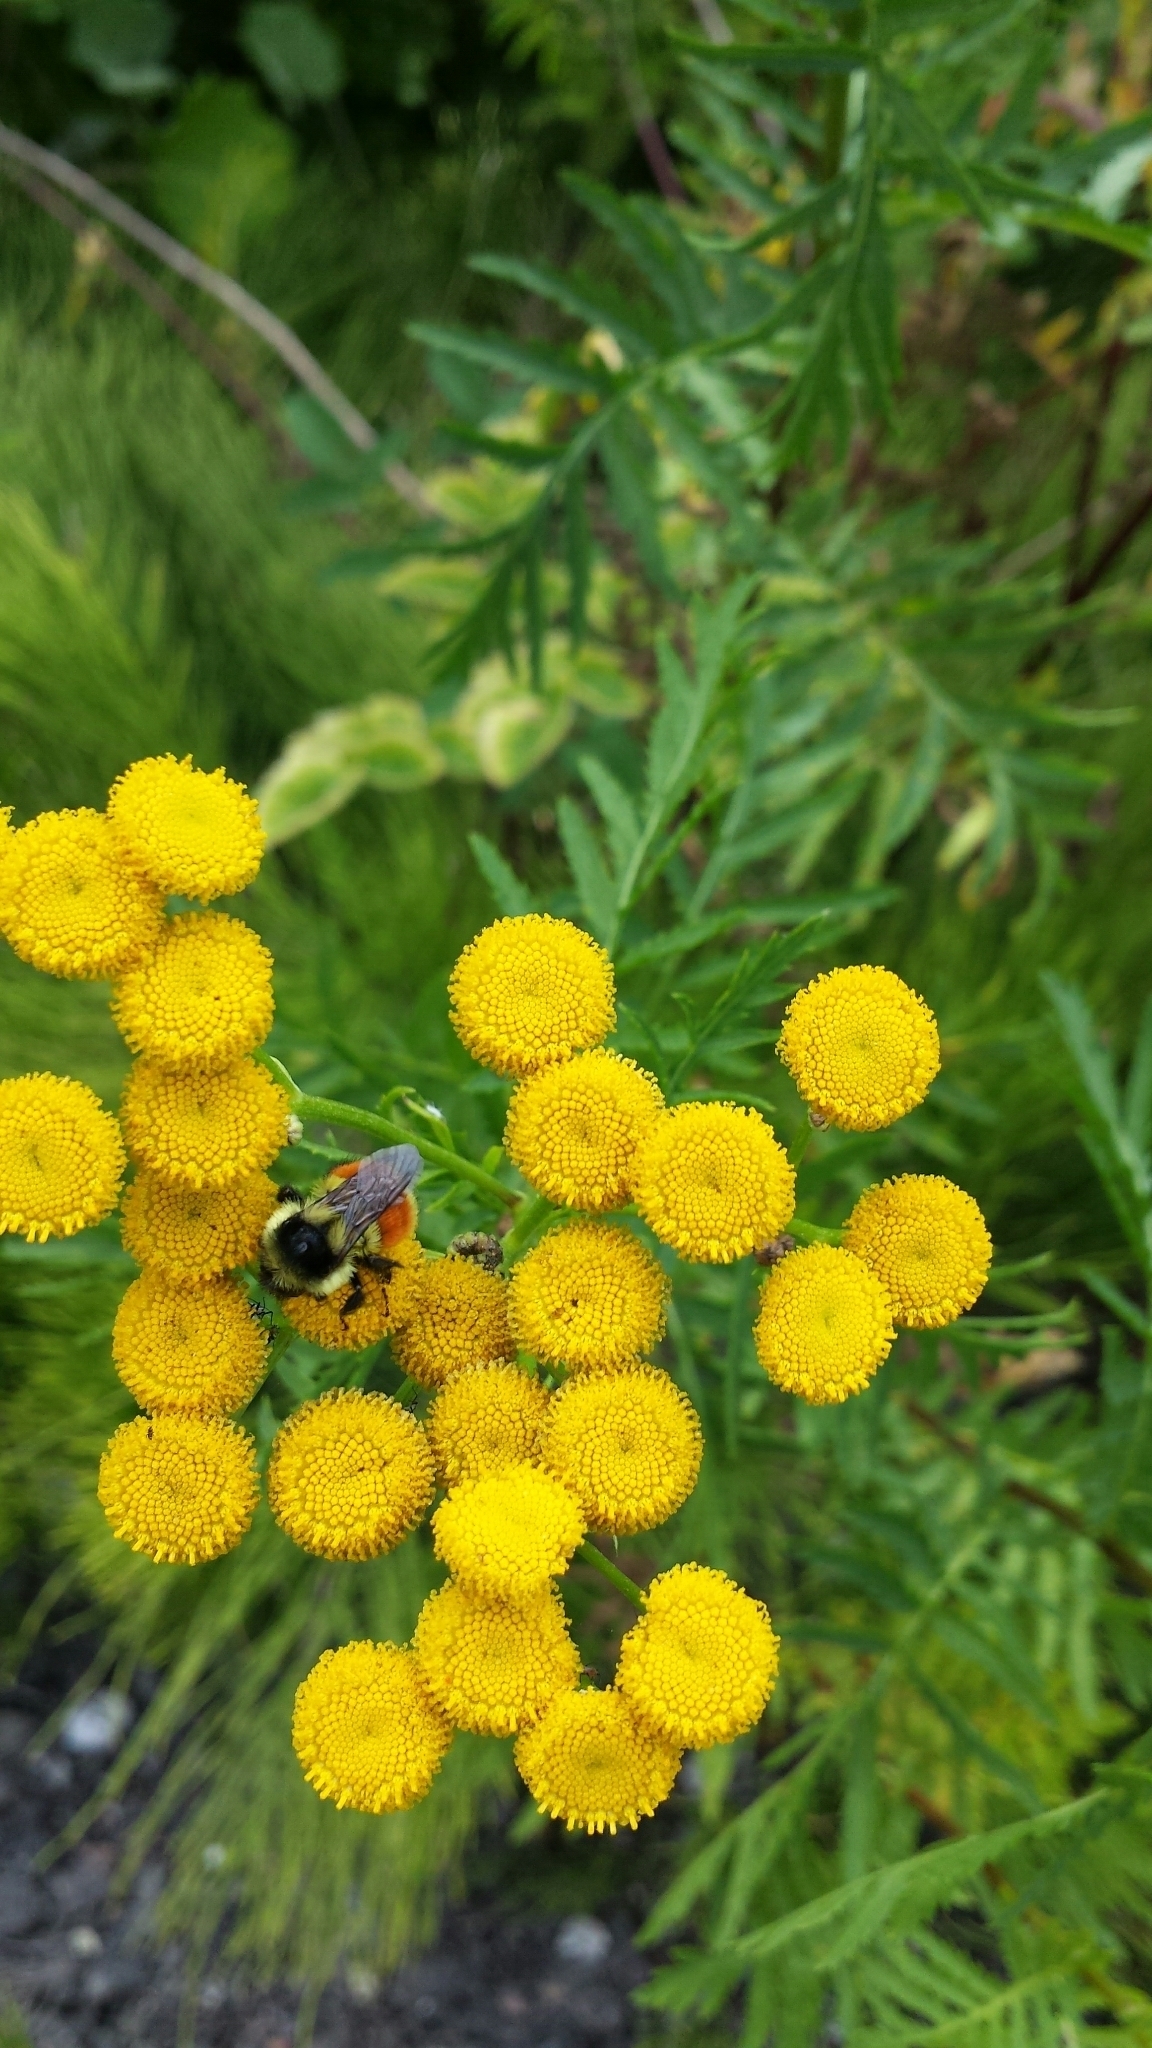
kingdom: Animalia
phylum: Arthropoda
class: Insecta
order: Hymenoptera
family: Apidae
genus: Bombus
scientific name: Bombus ternarius
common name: Tri-colored bumble bee
